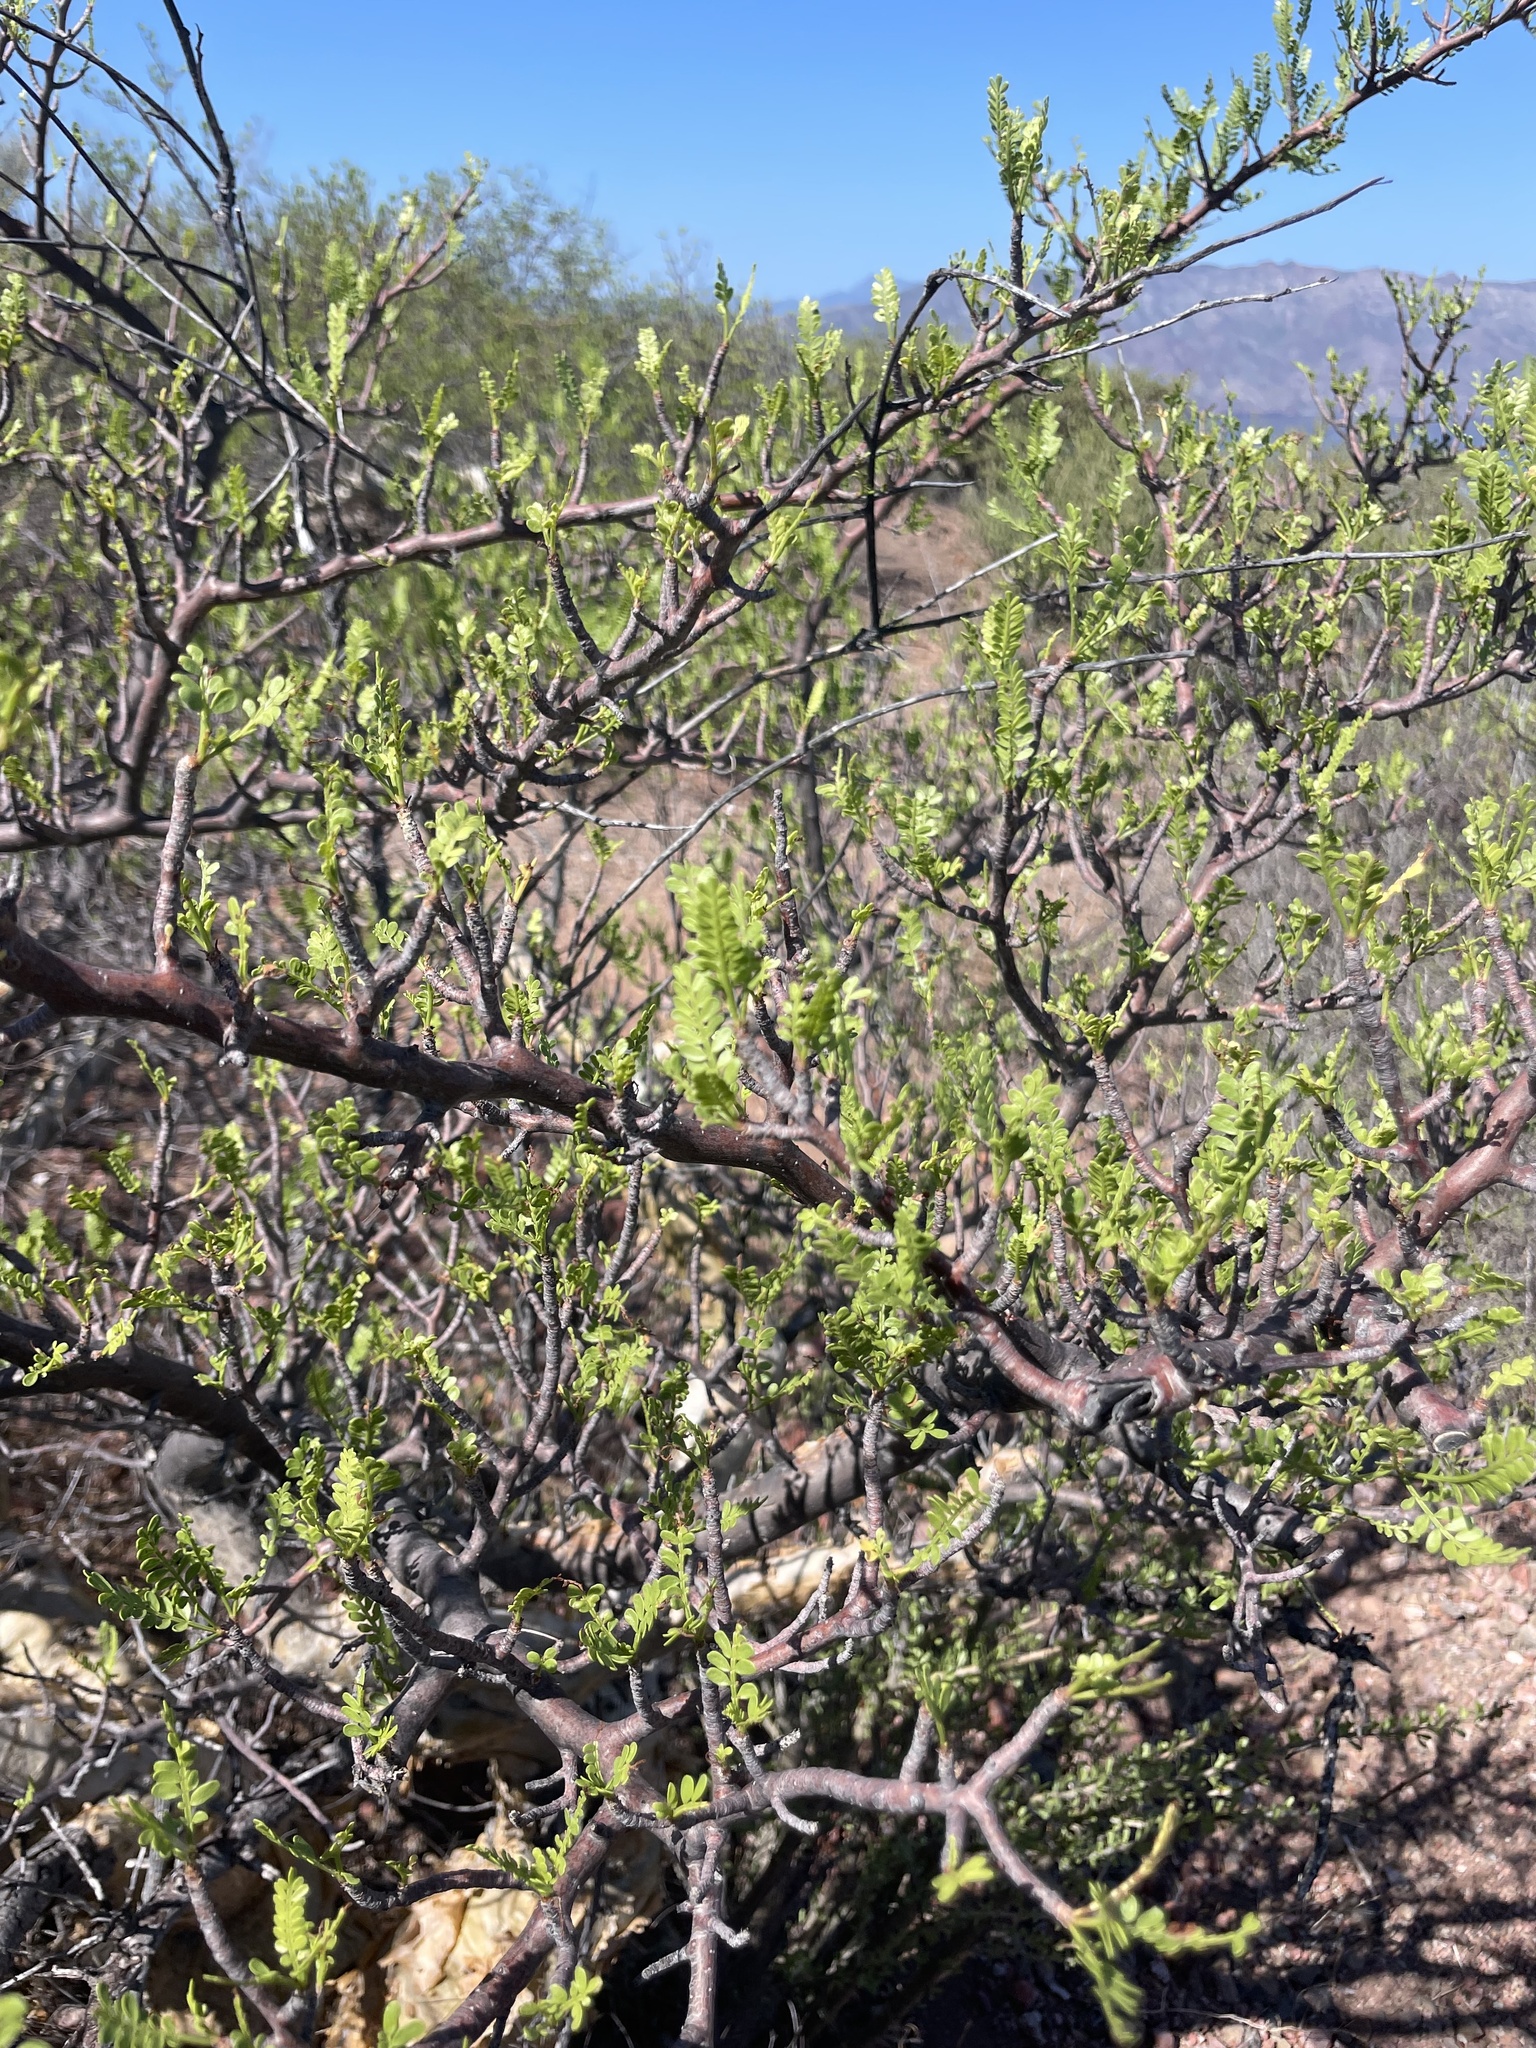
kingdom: Plantae
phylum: Tracheophyta
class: Magnoliopsida
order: Sapindales
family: Burseraceae
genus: Bursera
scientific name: Bursera microphylla
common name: Elephant tree
